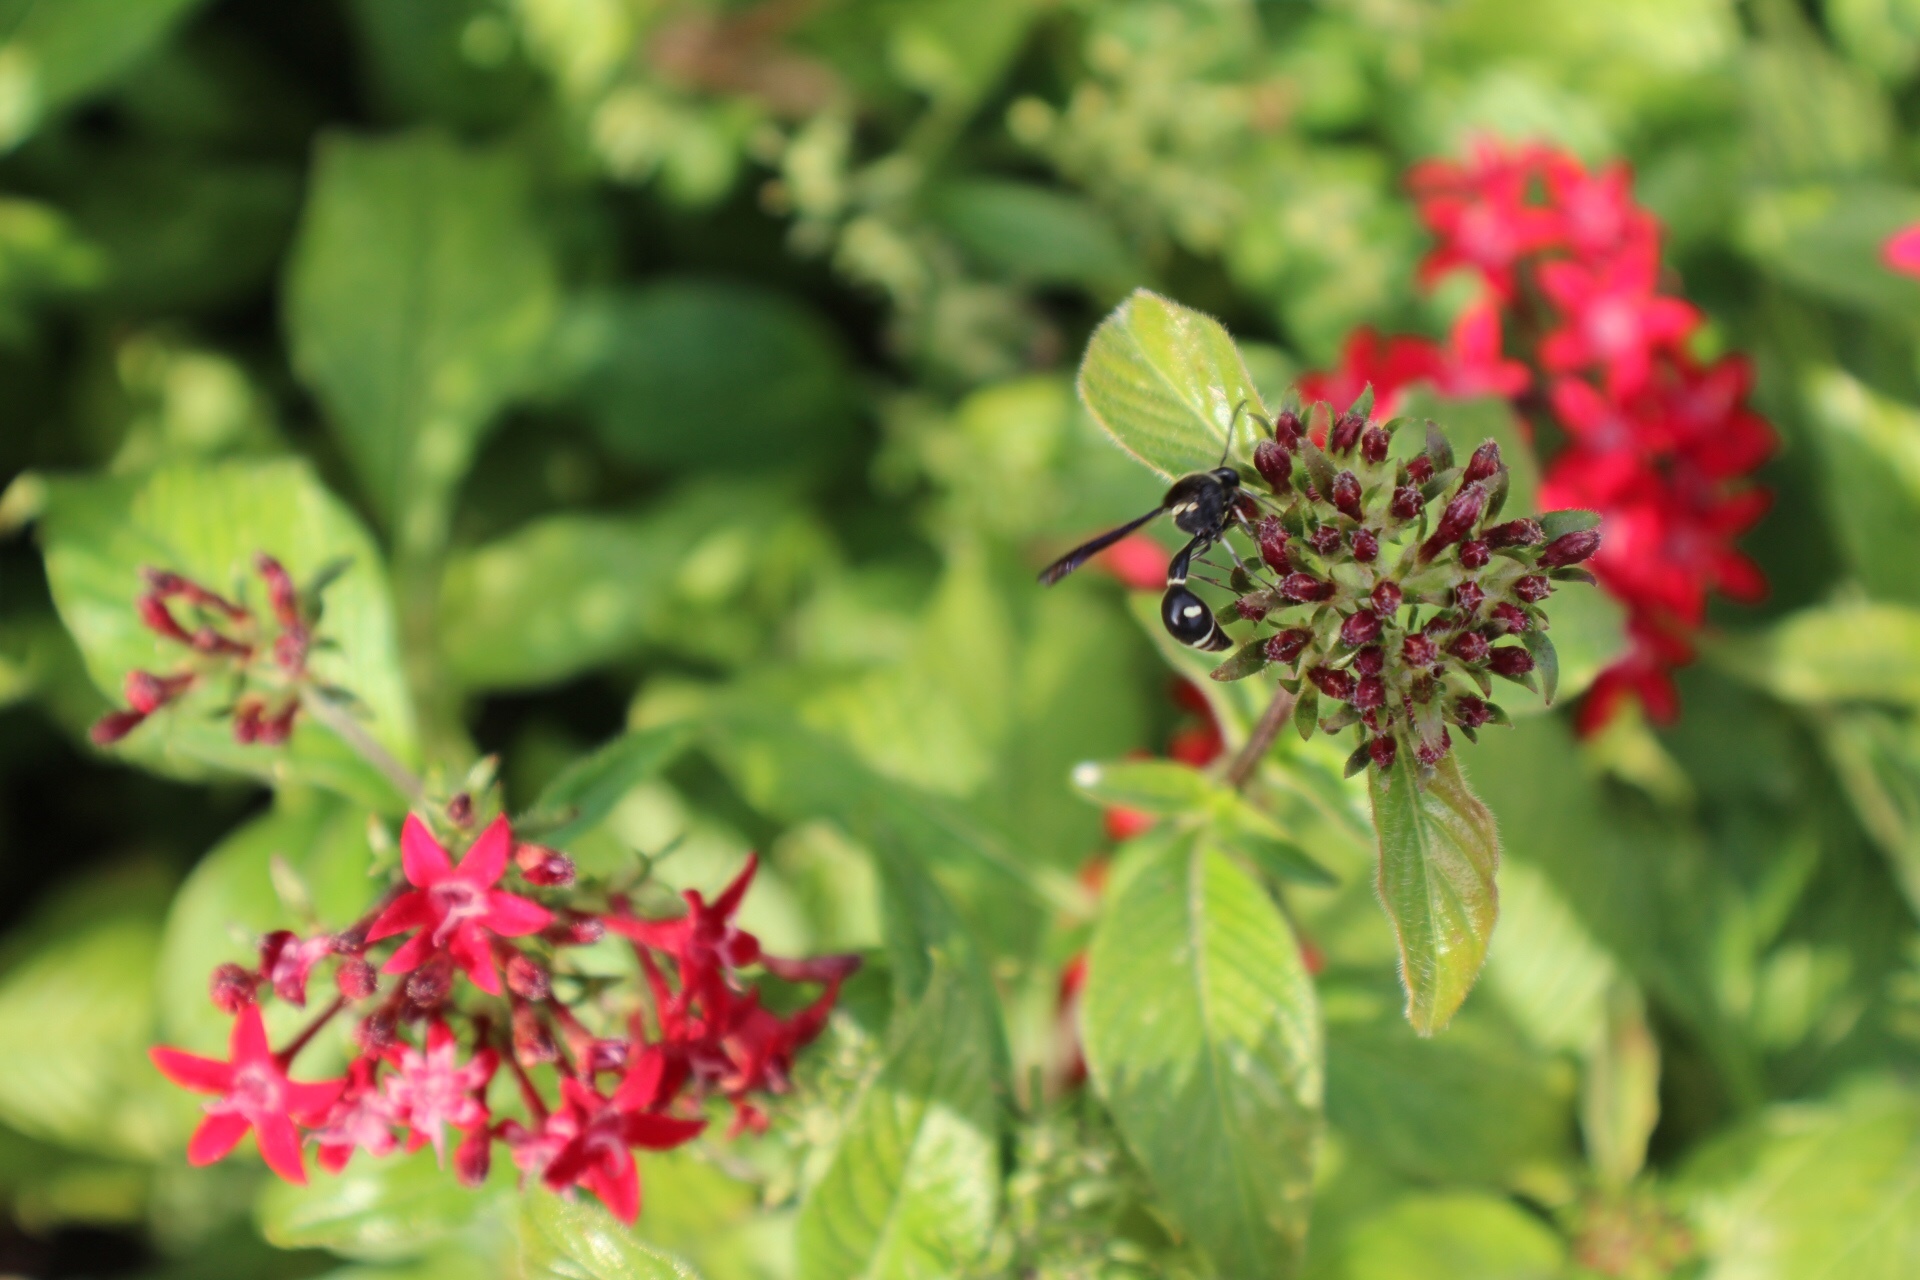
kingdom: Animalia
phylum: Arthropoda
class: Insecta
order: Hymenoptera
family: Vespidae
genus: Eumenes
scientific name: Eumenes fraternus
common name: Fraternal potter wasp
